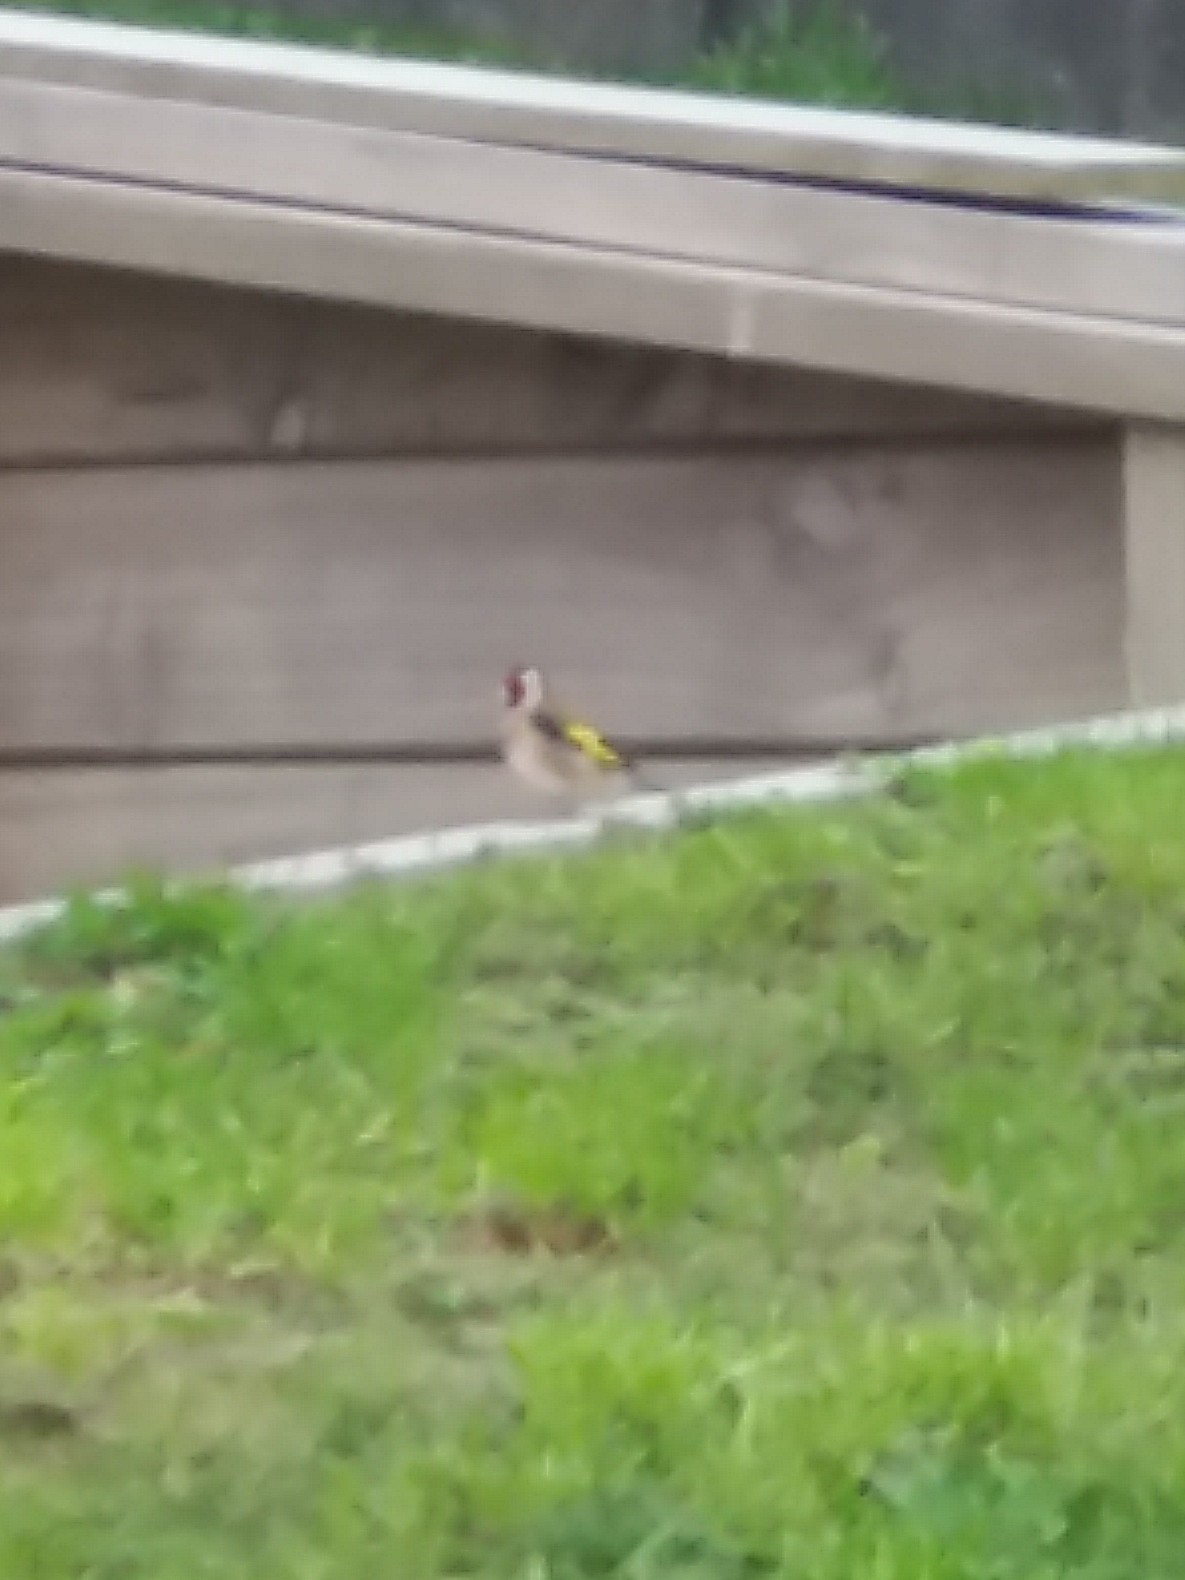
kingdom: Animalia
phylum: Chordata
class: Aves
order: Passeriformes
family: Fringillidae
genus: Carduelis
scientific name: Carduelis carduelis
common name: European goldfinch
